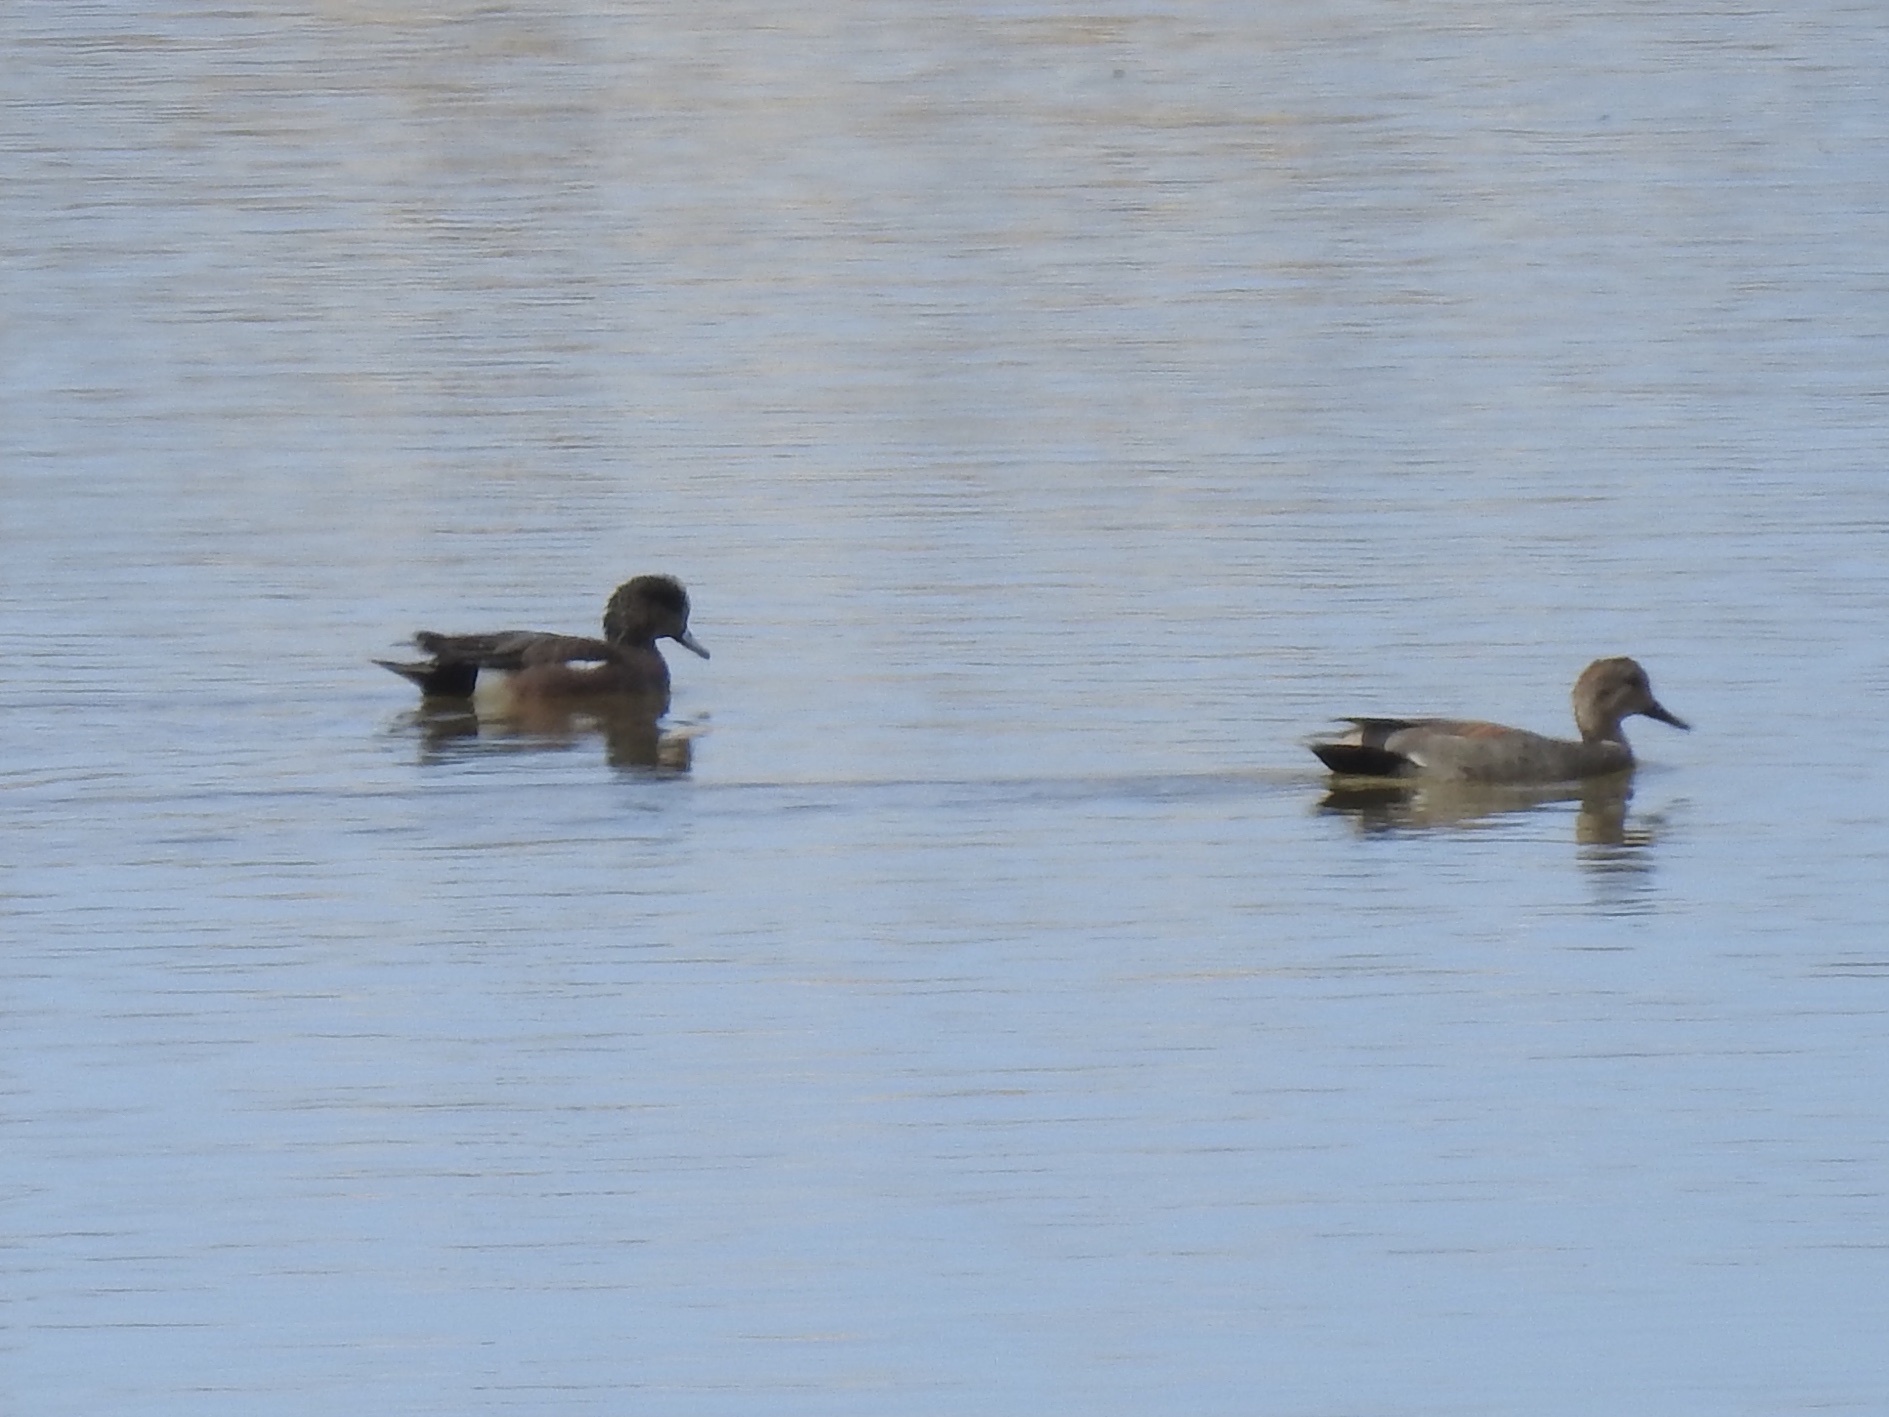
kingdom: Animalia
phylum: Chordata
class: Aves
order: Anseriformes
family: Anatidae
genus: Mareca
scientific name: Mareca americana
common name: American wigeon
